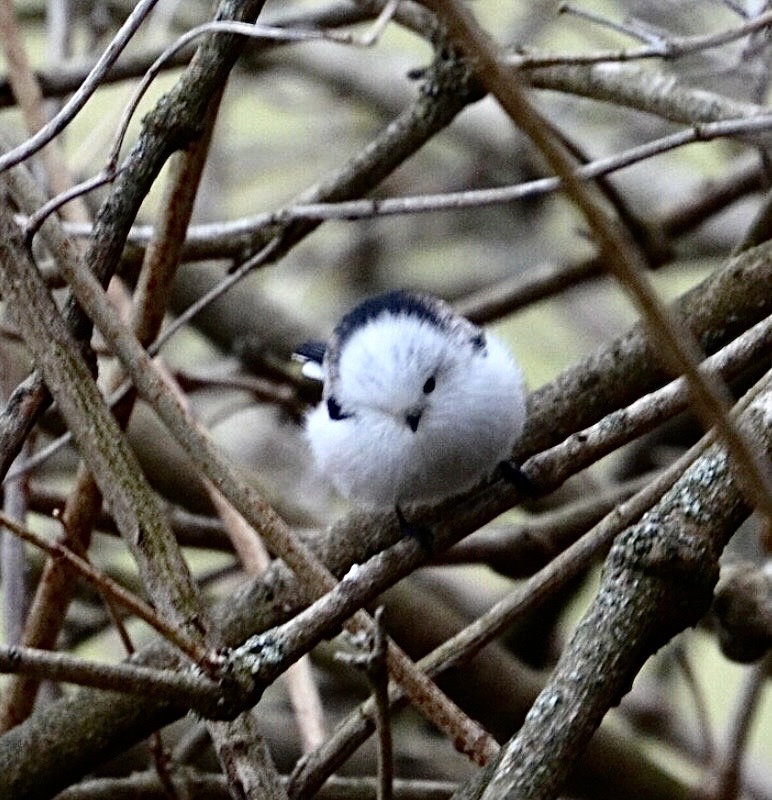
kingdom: Animalia
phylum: Chordata
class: Aves
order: Passeriformes
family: Aegithalidae
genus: Aegithalos
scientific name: Aegithalos caudatus
